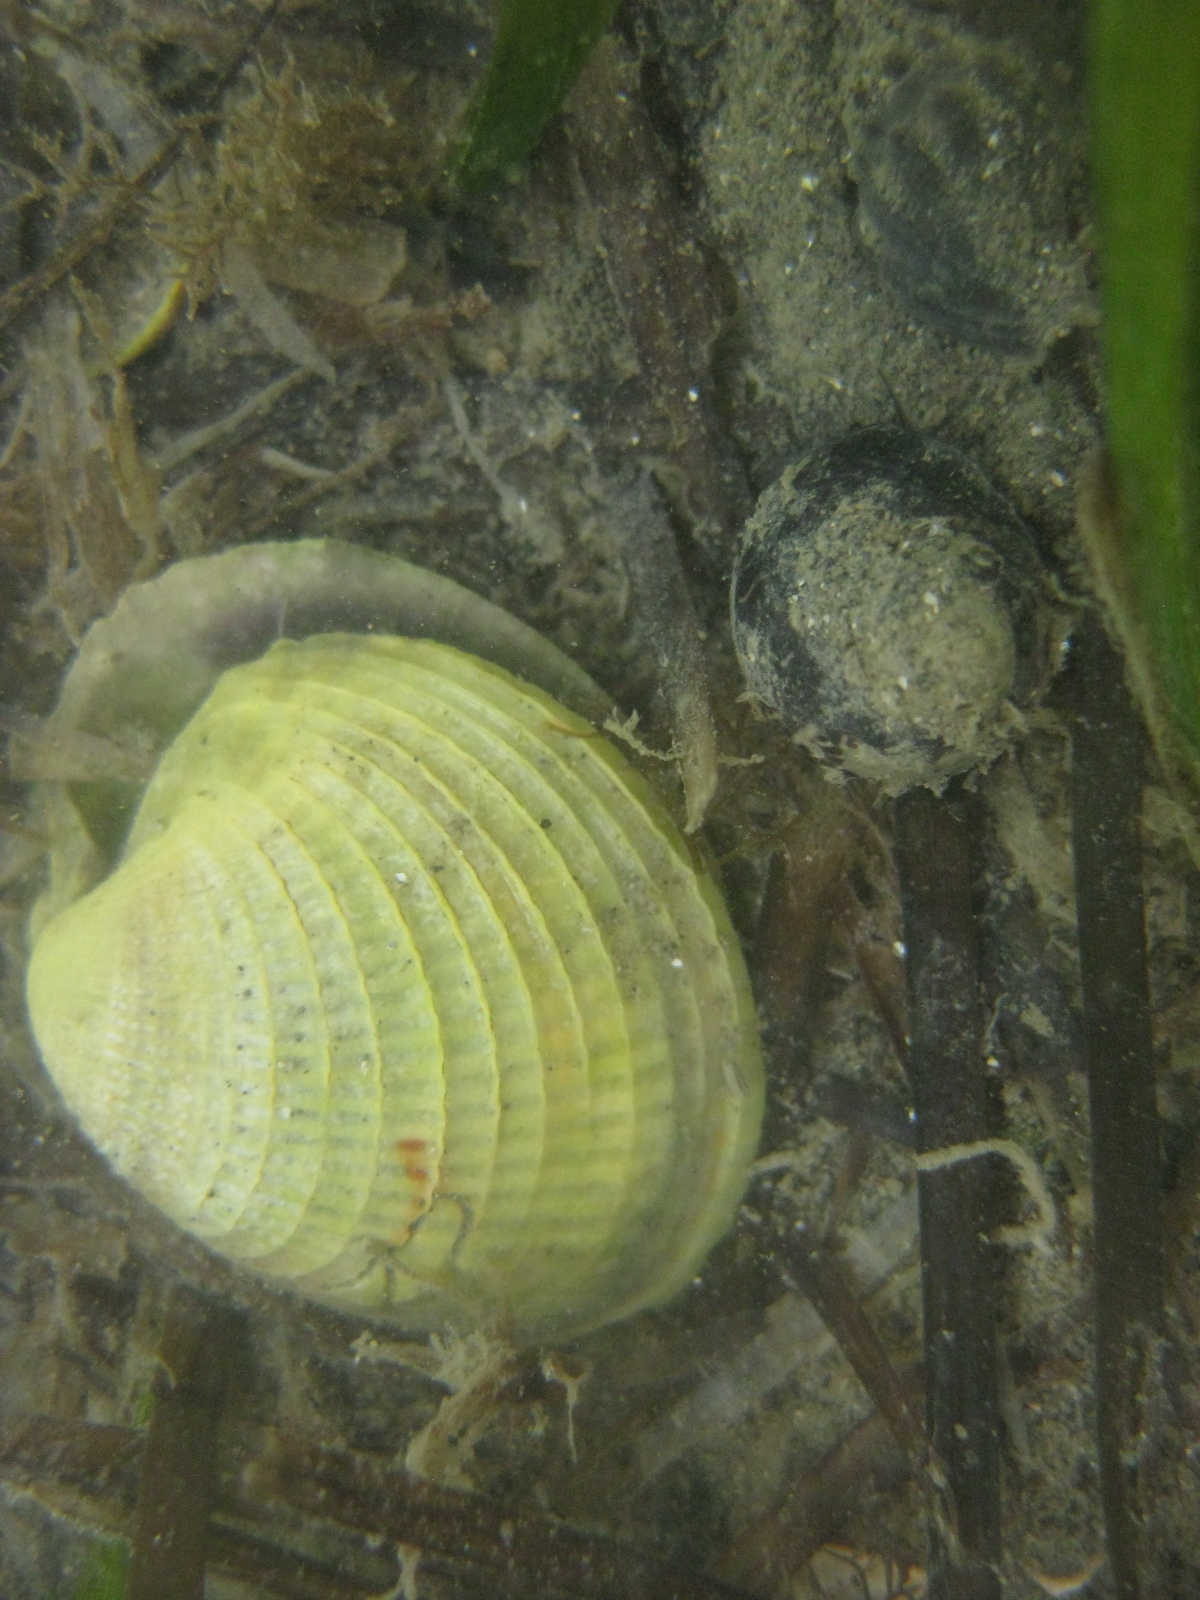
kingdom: Animalia
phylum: Mollusca
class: Bivalvia
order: Venerida
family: Veneridae
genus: Austrovenus
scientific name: Austrovenus stutchburyi
